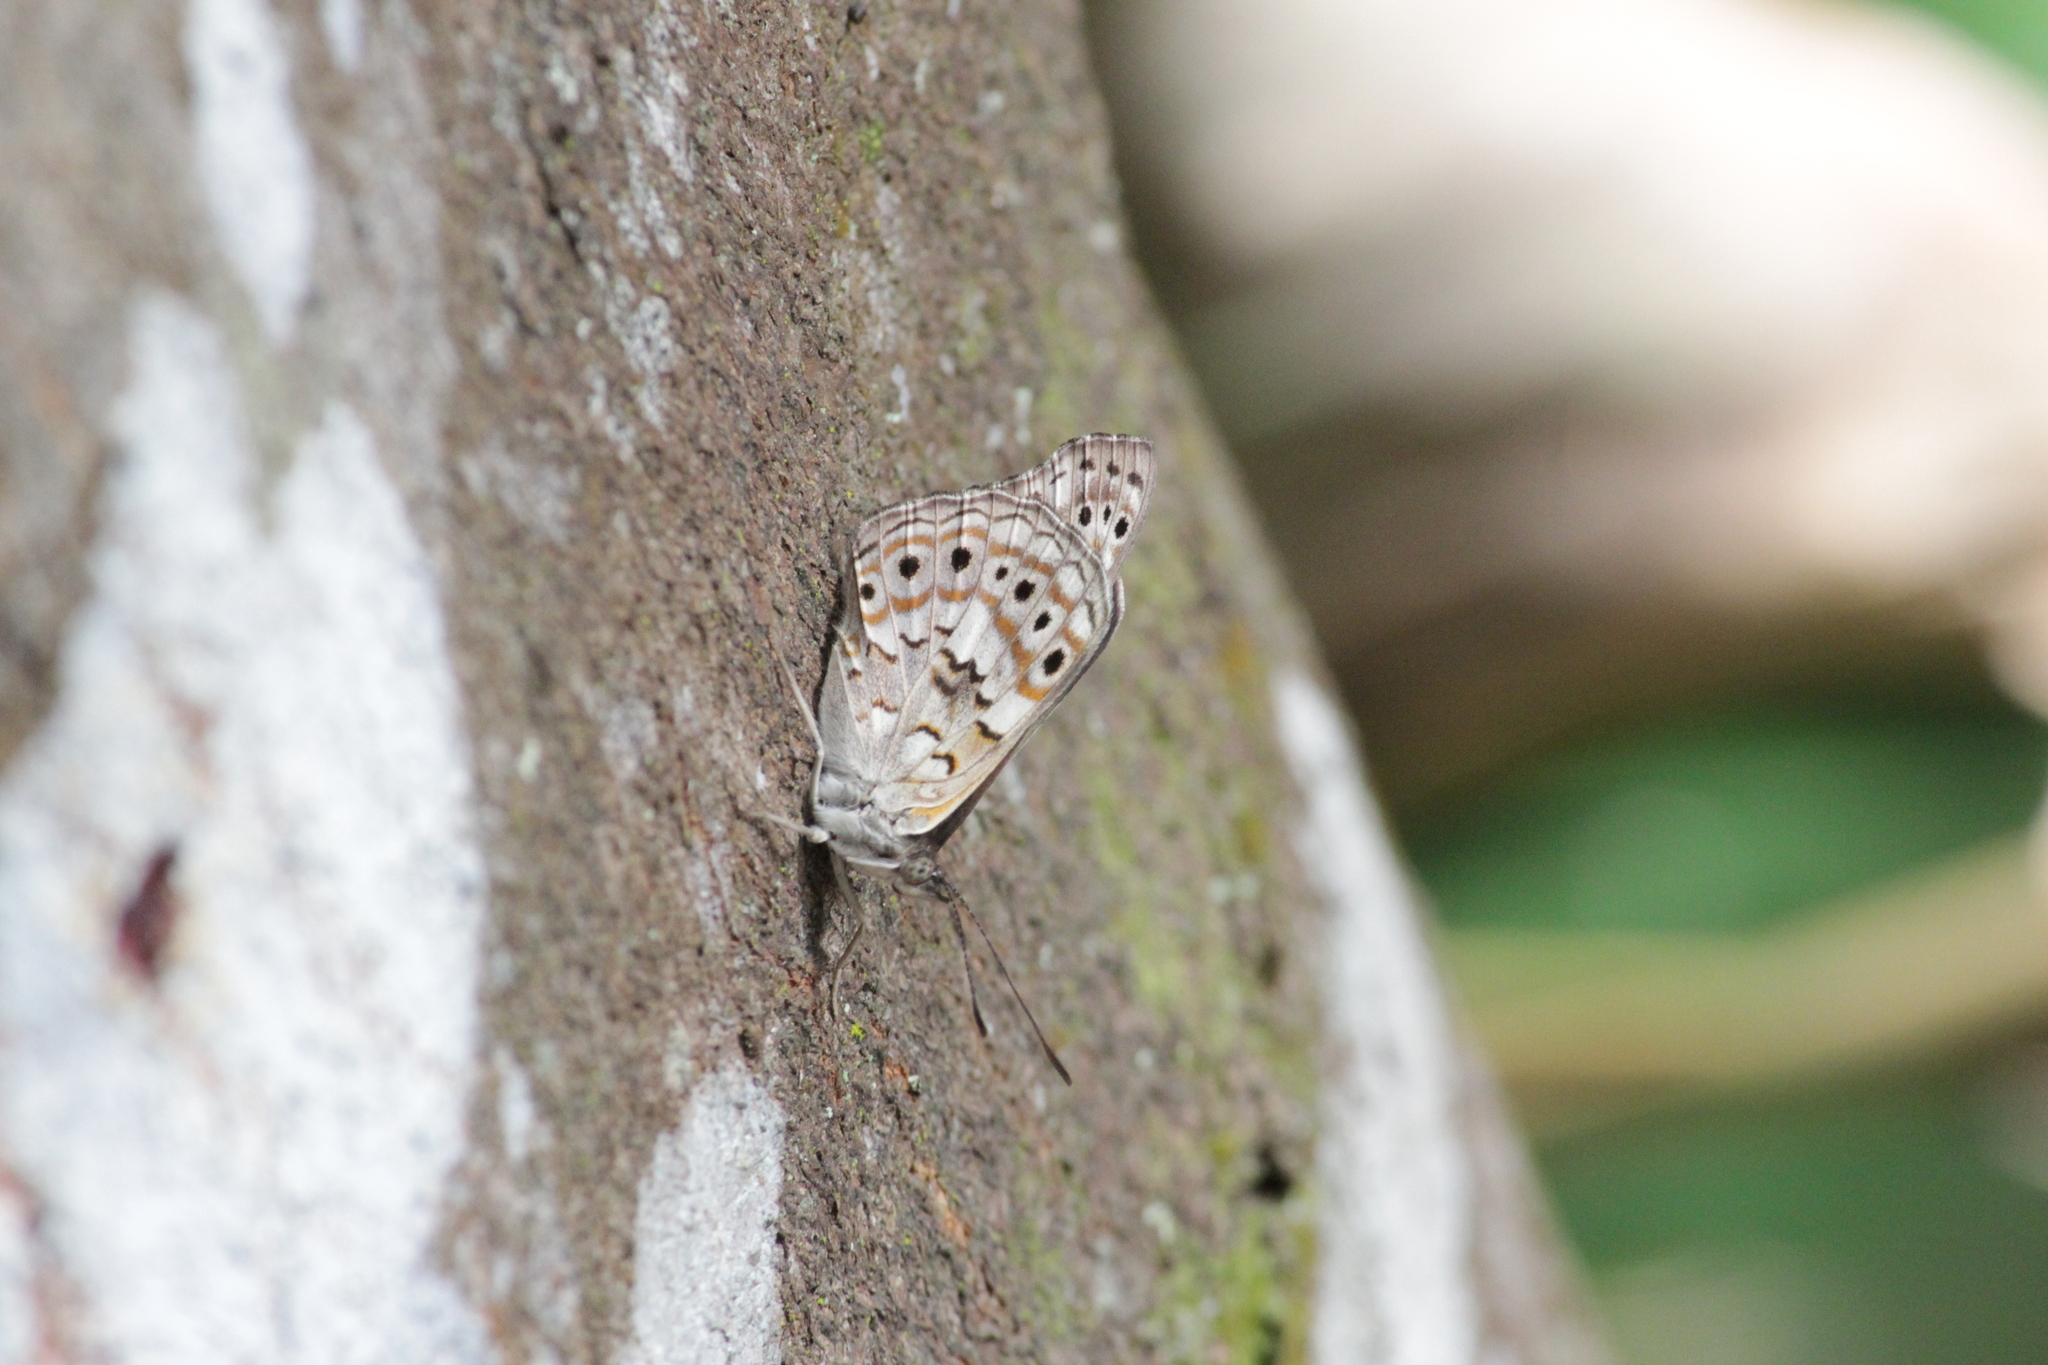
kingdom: Animalia
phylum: Arthropoda
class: Insecta
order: Lepidoptera
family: Nymphalidae
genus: Asterope
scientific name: Asterope boisduvali
